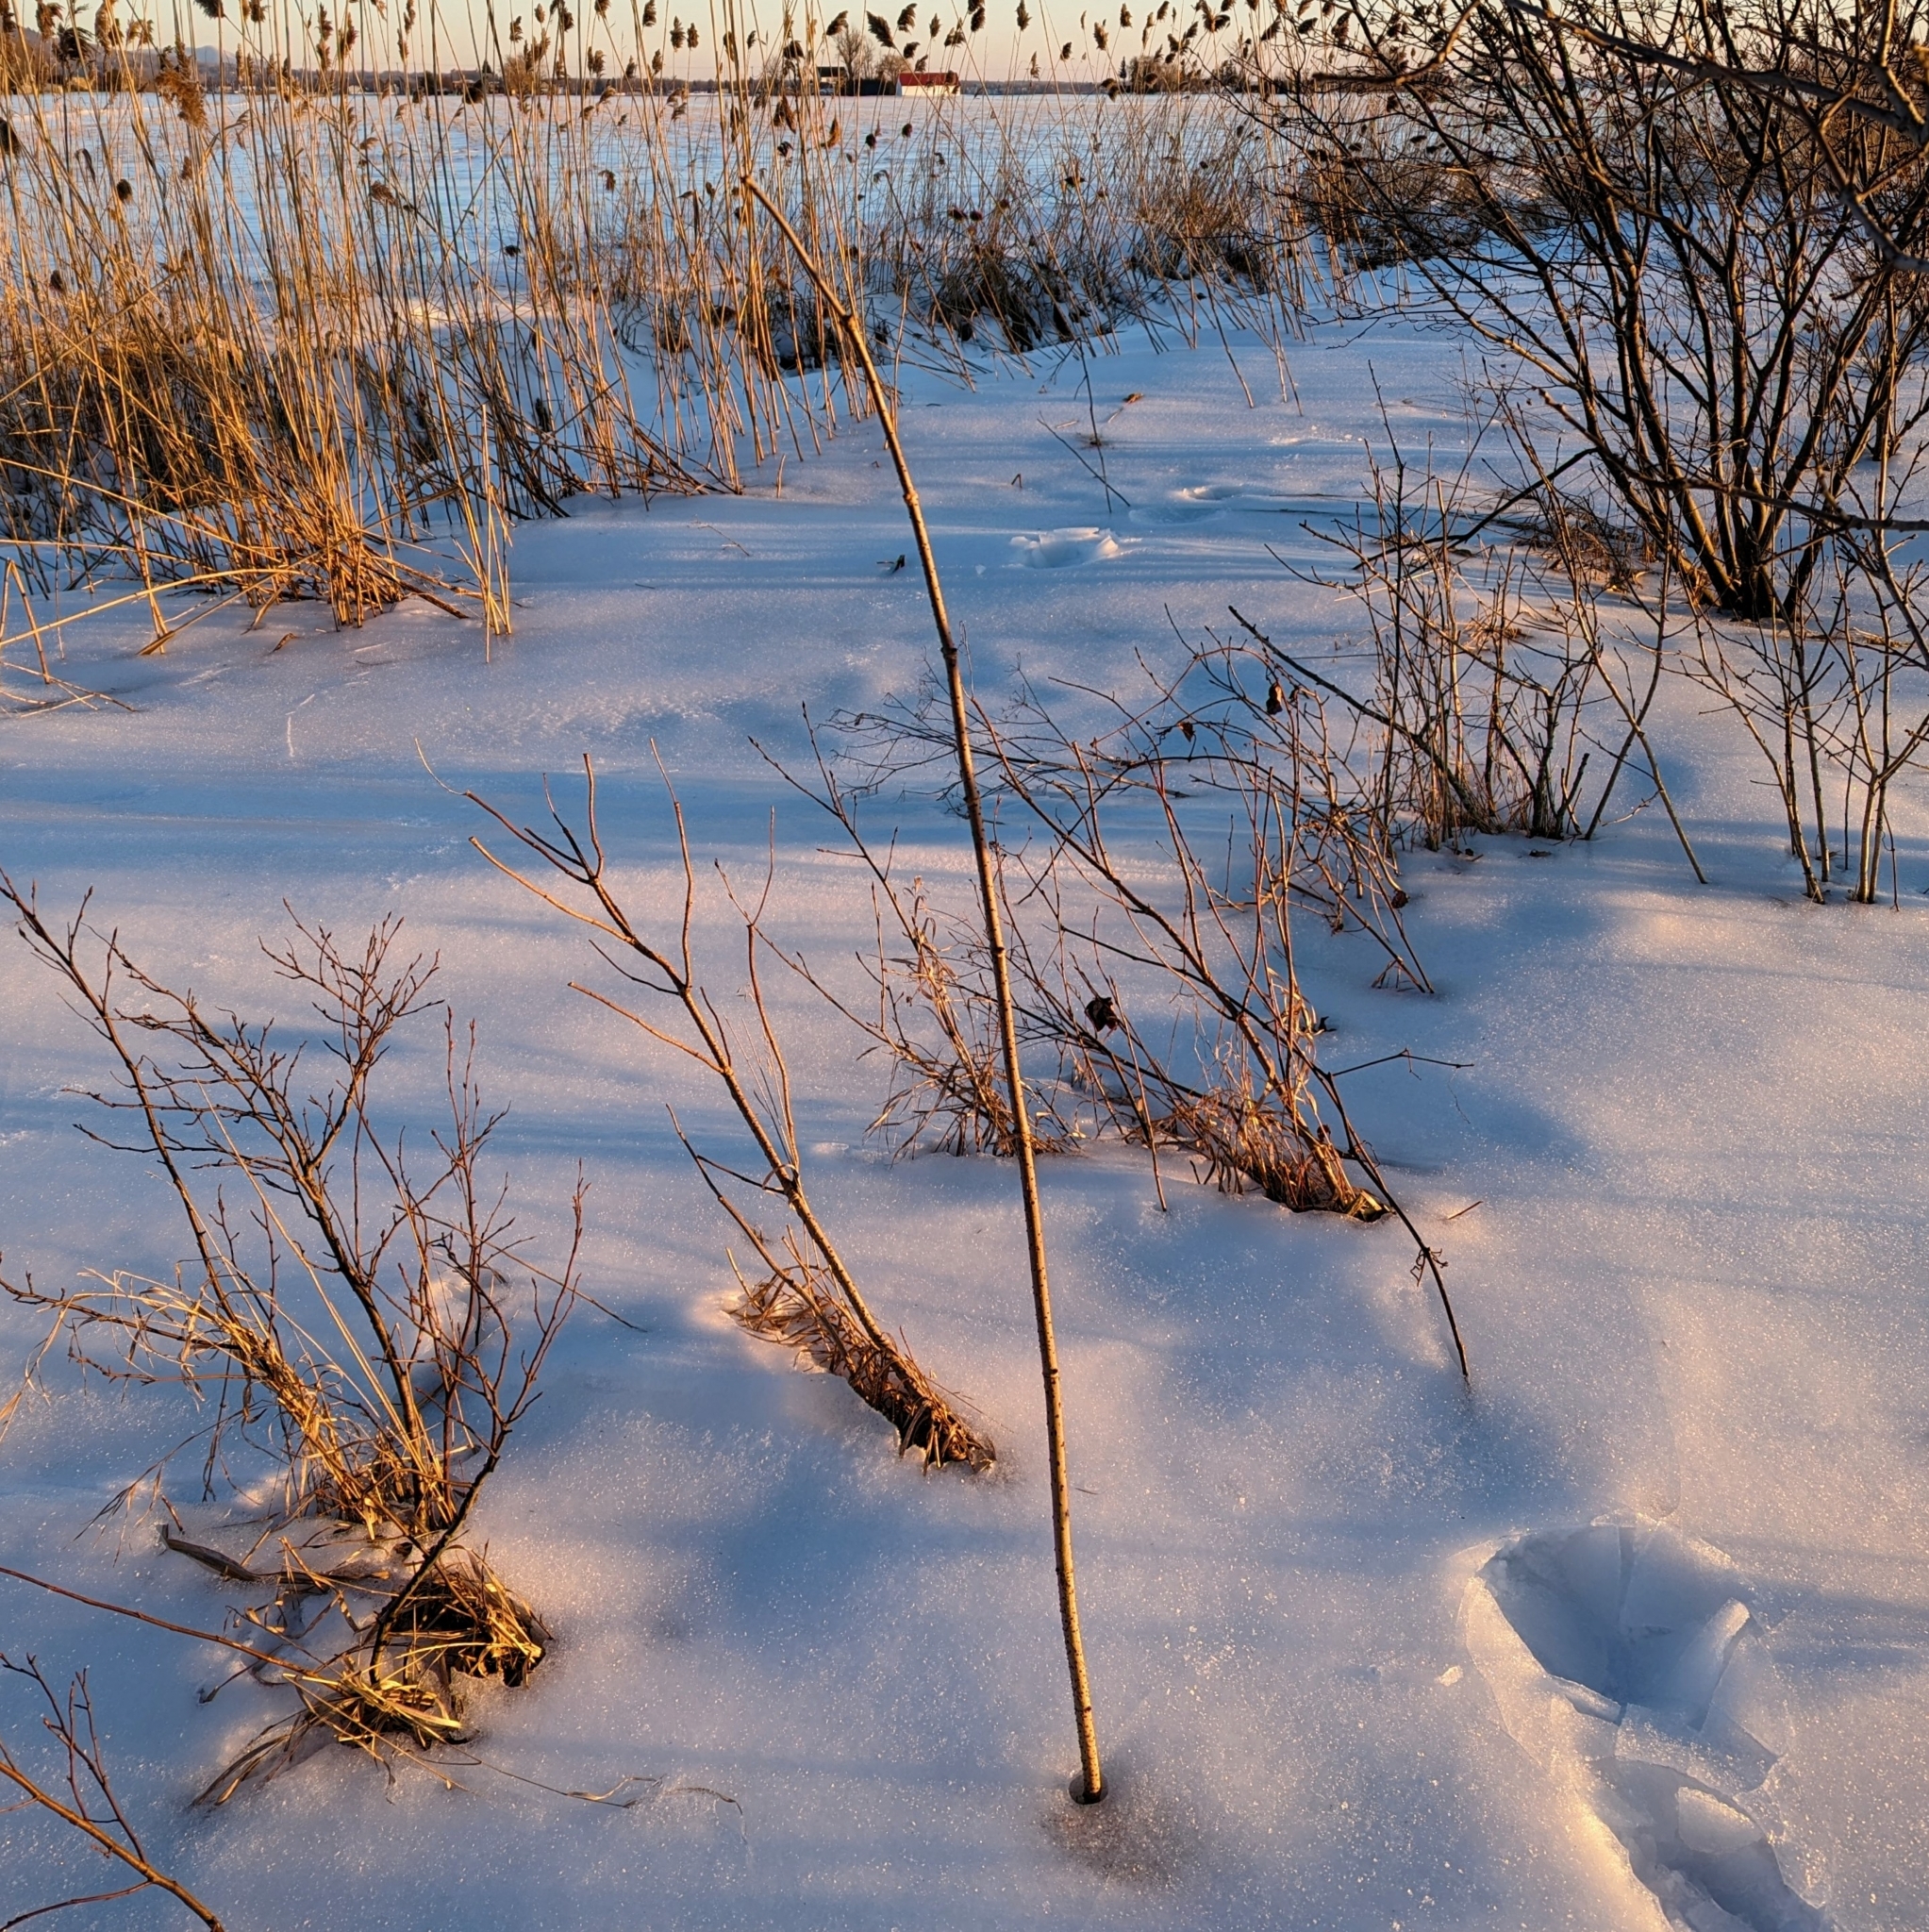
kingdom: Plantae
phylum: Tracheophyta
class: Magnoliopsida
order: Dipsacales
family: Viburnaceae
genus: Sambucus
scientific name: Sambucus canadensis
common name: American elder
